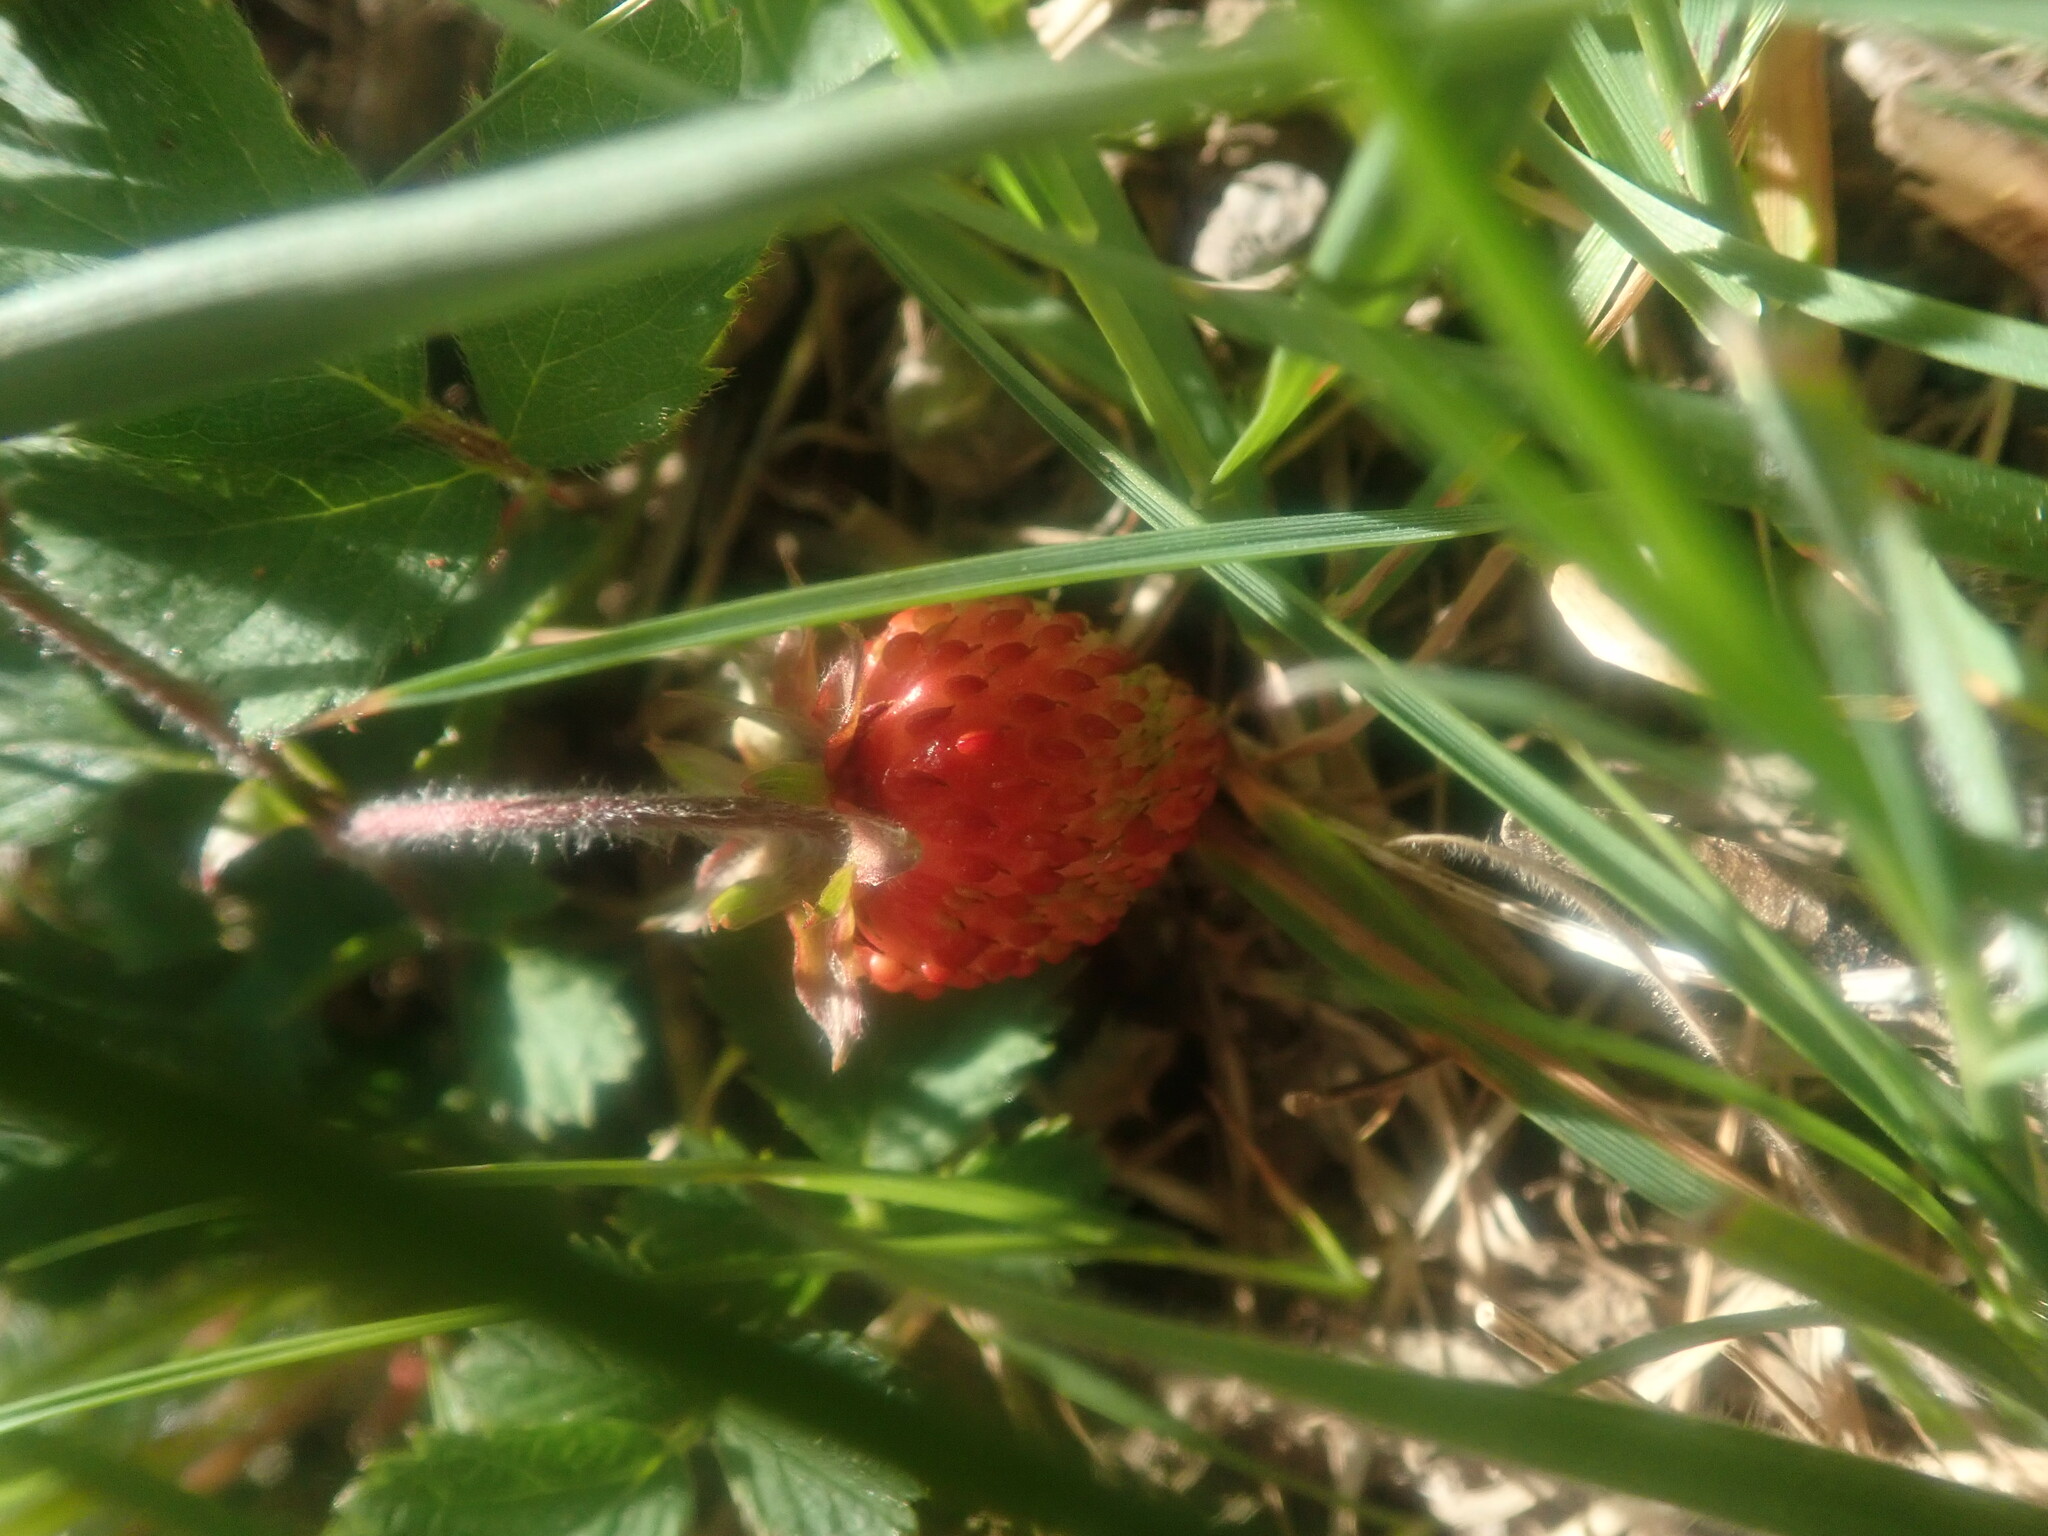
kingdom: Plantae
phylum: Tracheophyta
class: Magnoliopsida
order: Rosales
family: Rosaceae
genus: Fragaria
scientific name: Fragaria vesca
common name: Wild strawberry
